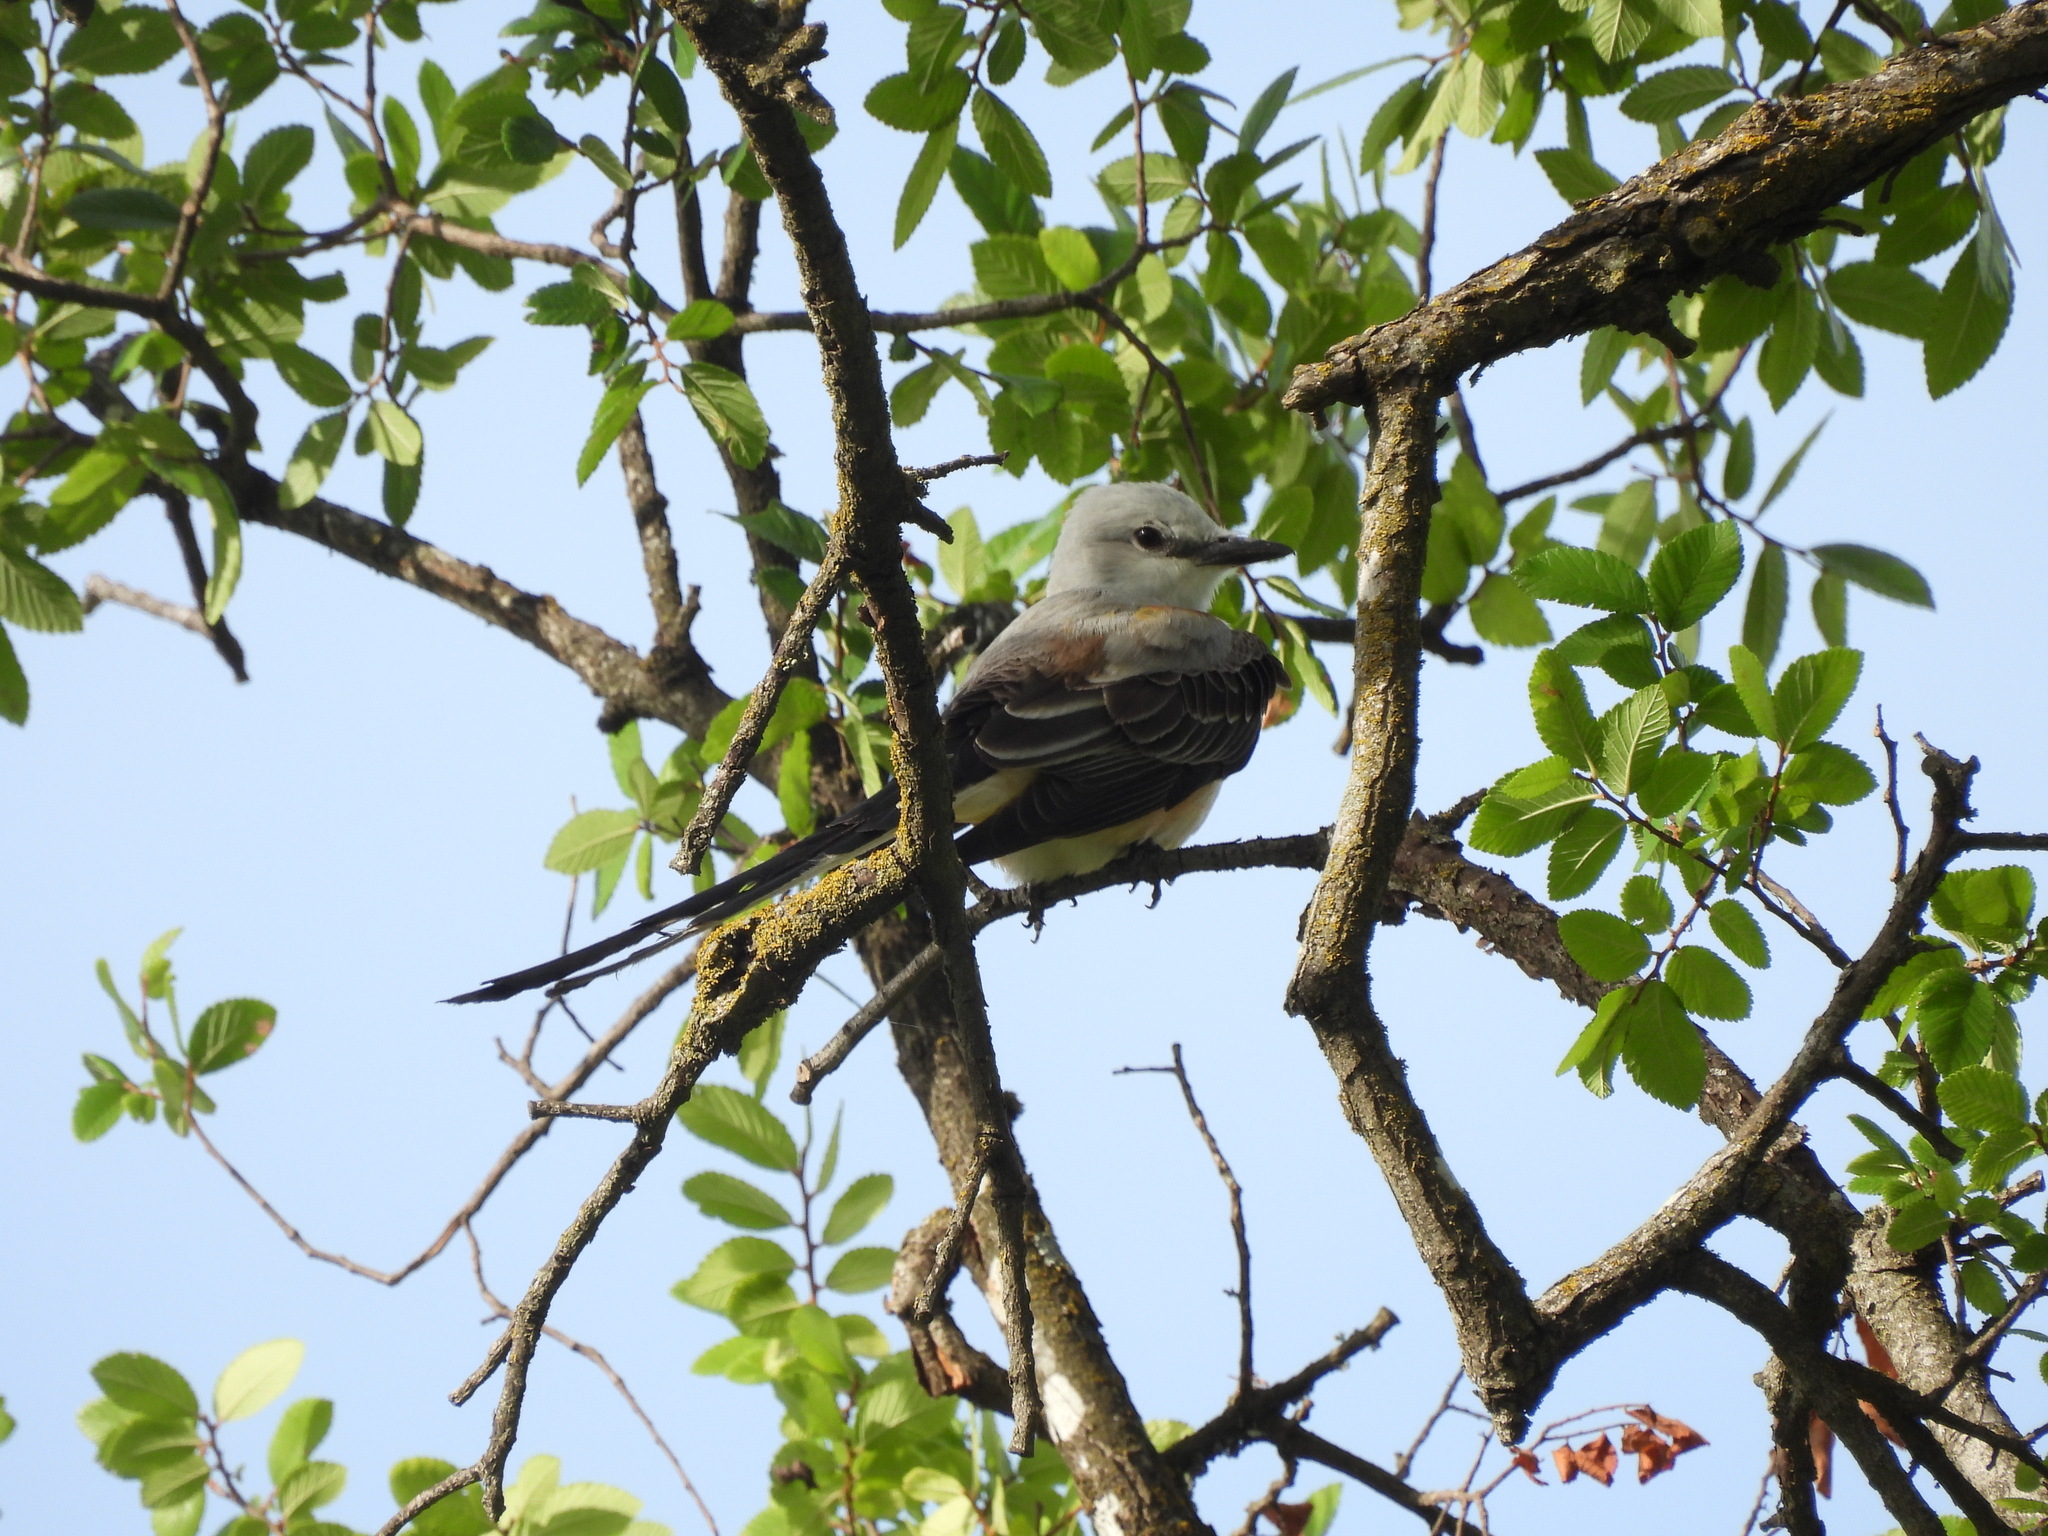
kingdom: Animalia
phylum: Chordata
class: Aves
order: Passeriformes
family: Tyrannidae
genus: Tyrannus
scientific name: Tyrannus forficatus
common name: Scissor-tailed flycatcher
